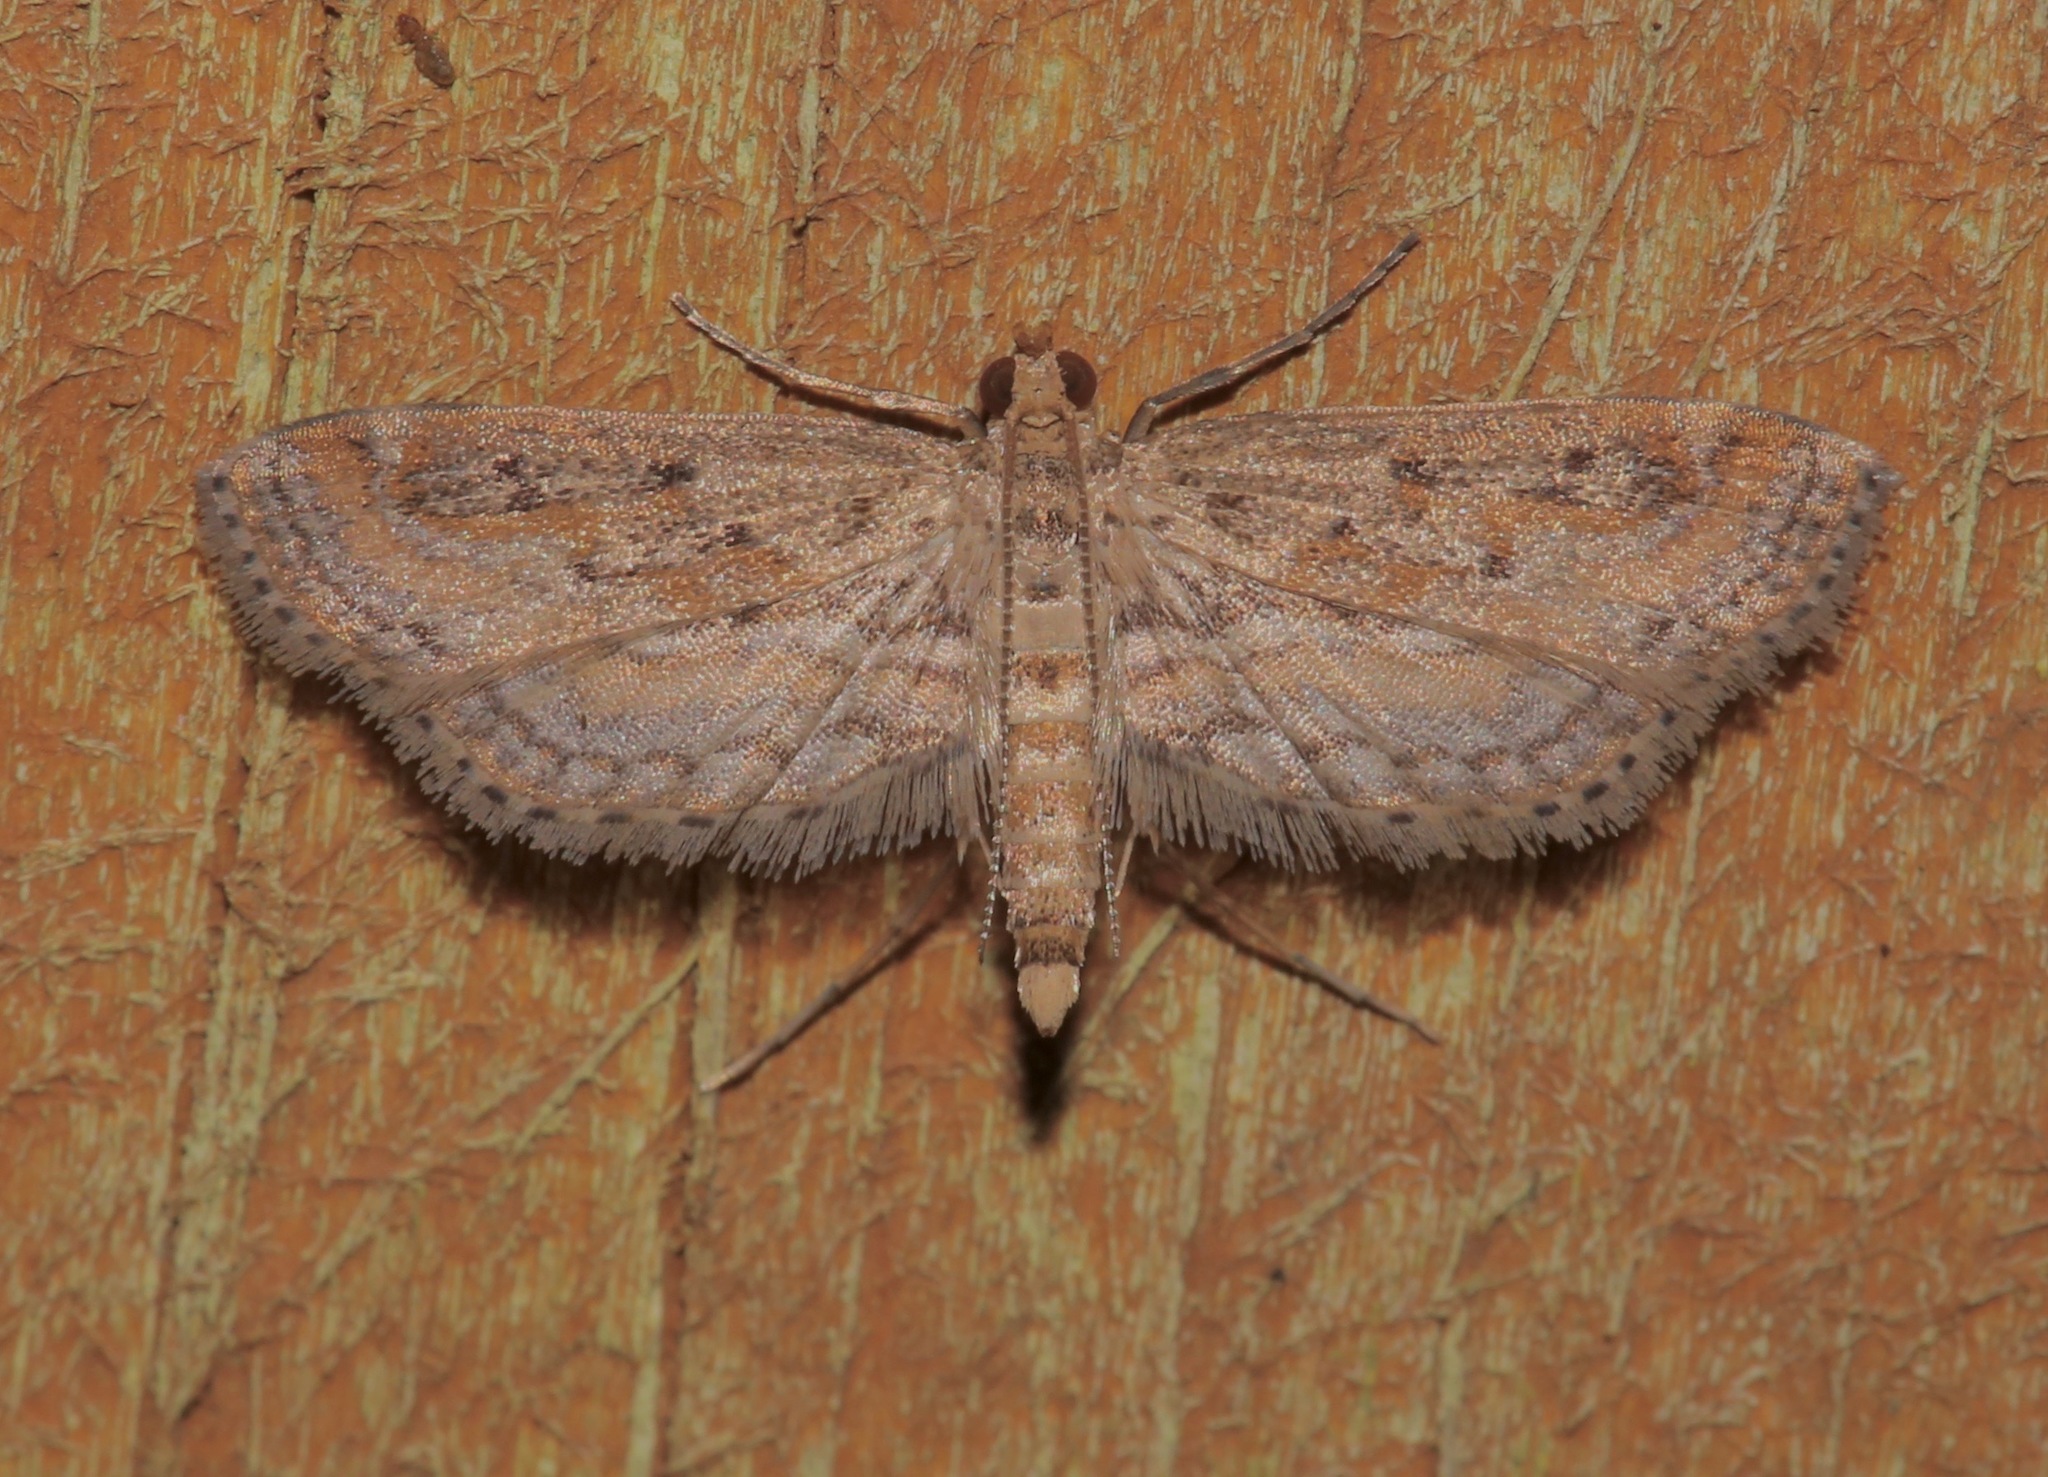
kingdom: Animalia
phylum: Arthropoda
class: Insecta
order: Lepidoptera
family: Crambidae
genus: Parapoynx
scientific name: Parapoynx allionealis
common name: Bladderwort casemaker
